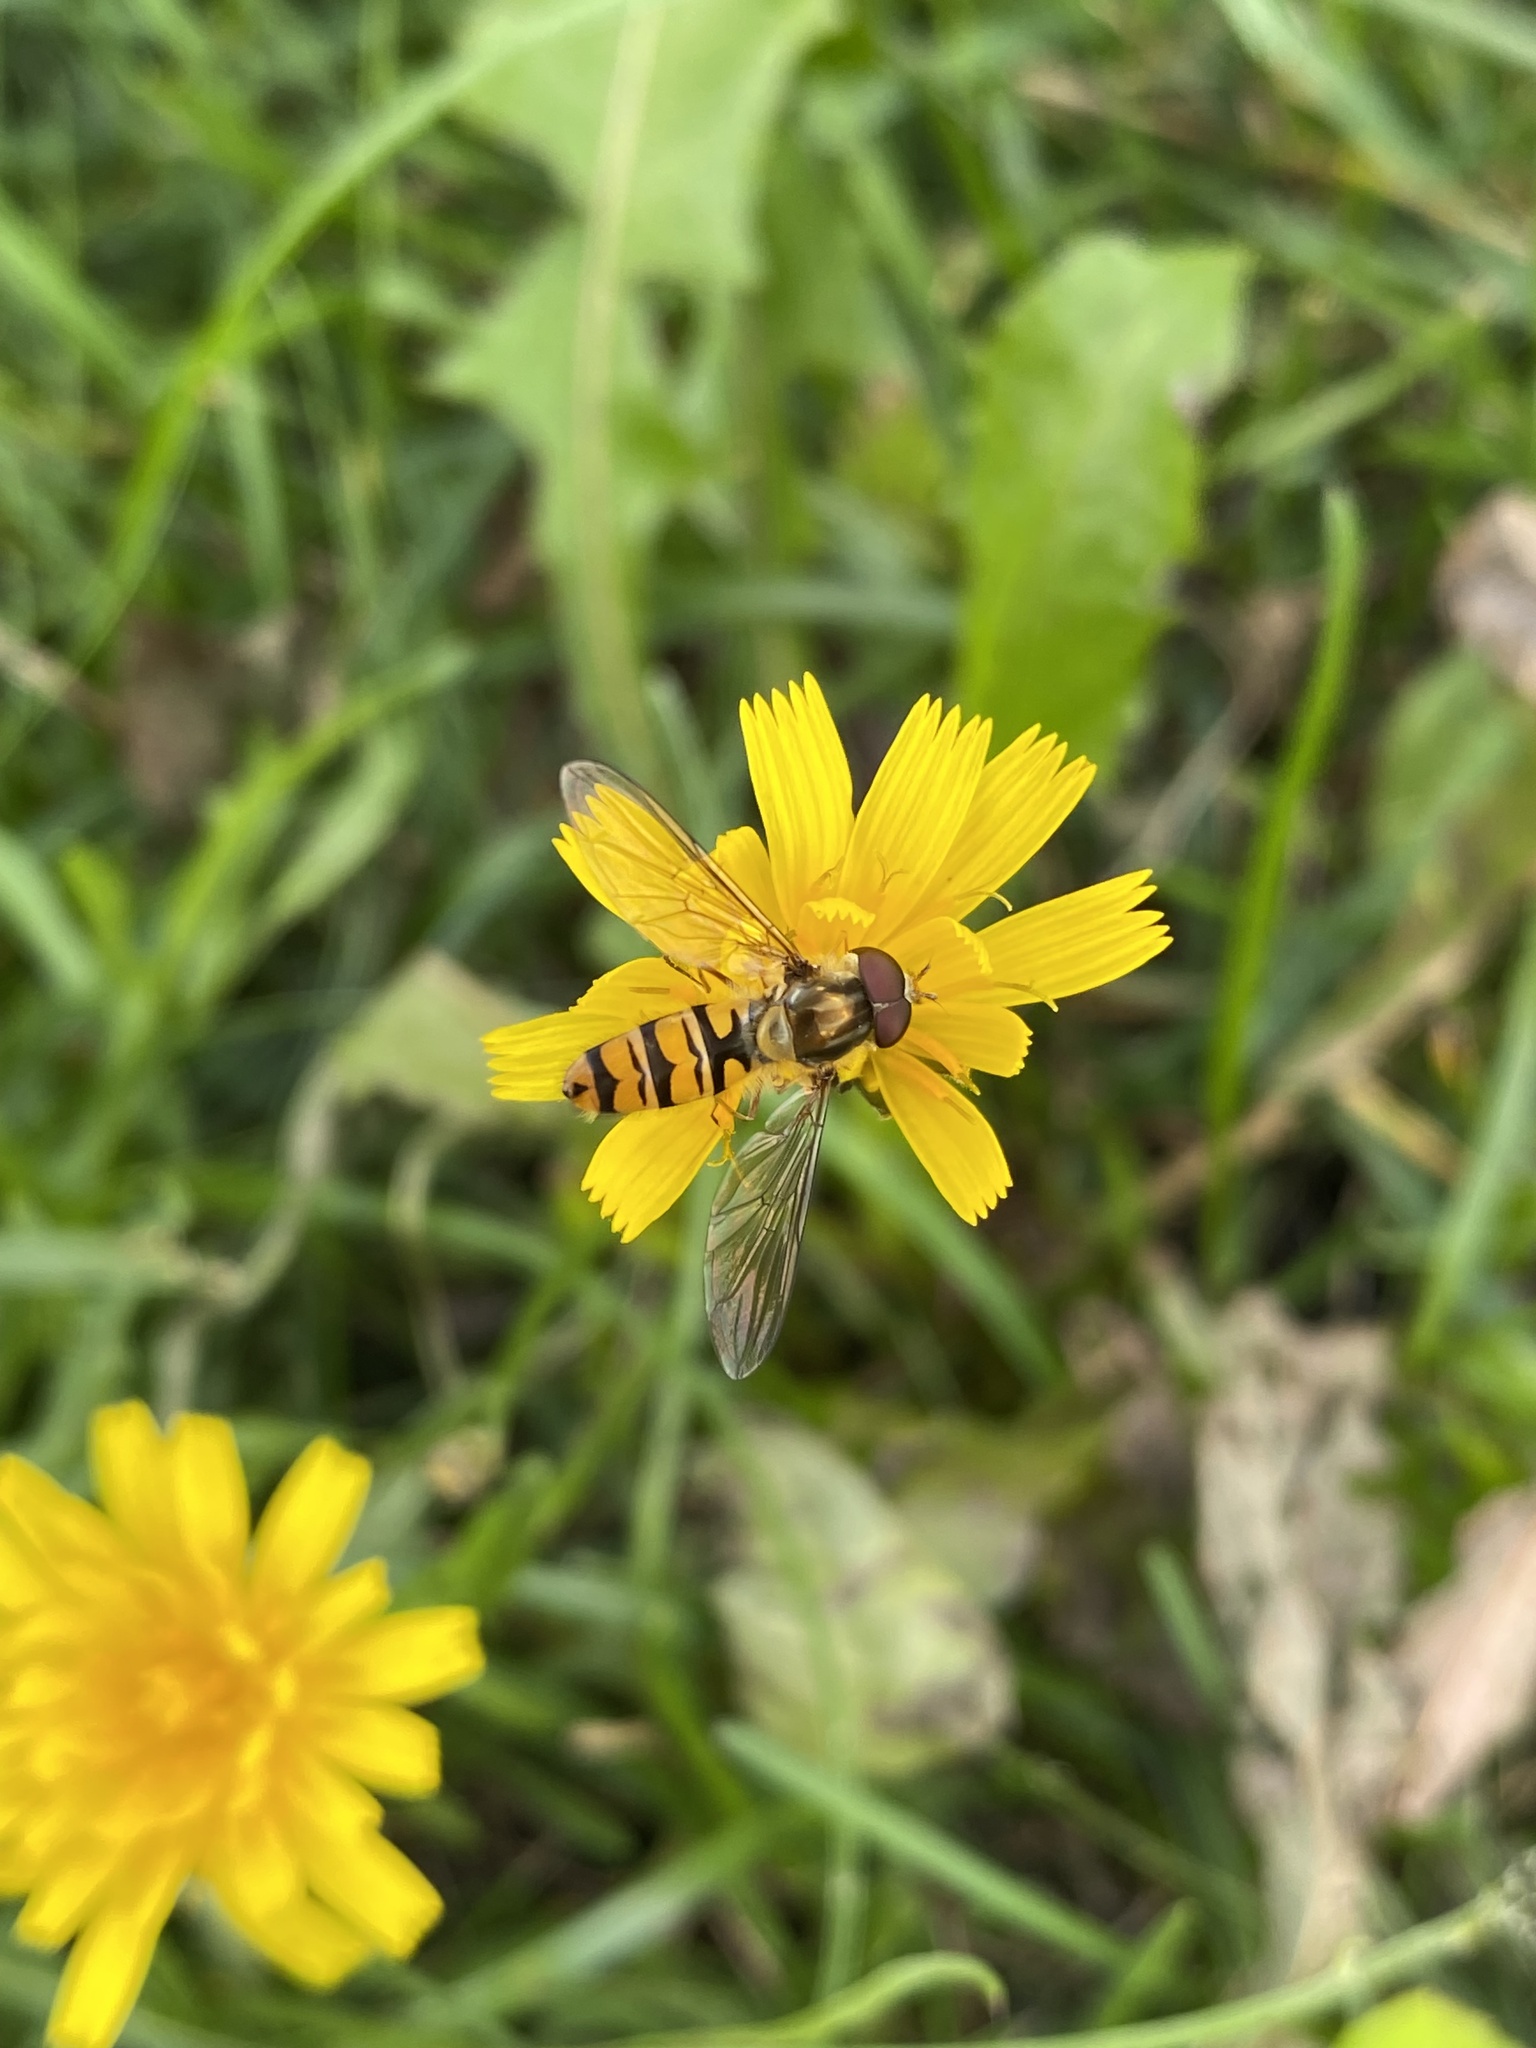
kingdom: Animalia
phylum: Arthropoda
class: Insecta
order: Diptera
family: Syrphidae
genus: Episyrphus
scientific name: Episyrphus balteatus
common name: Marmalade hoverfly
